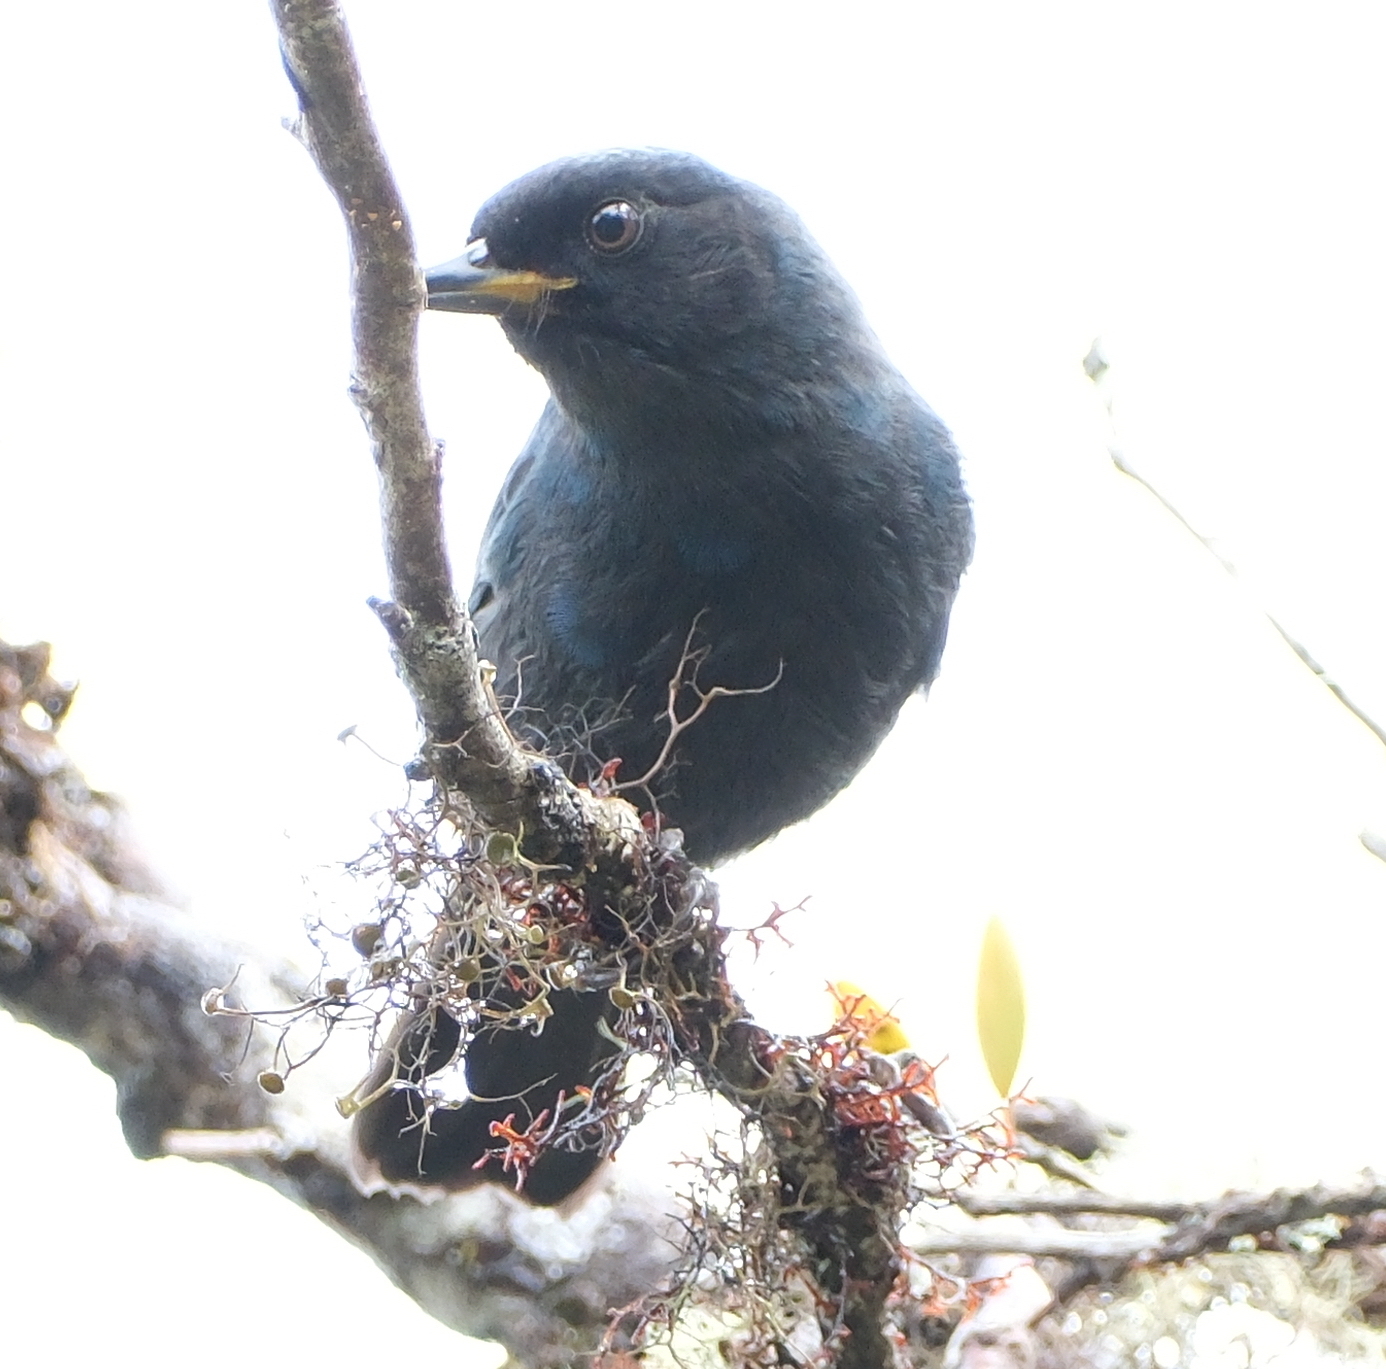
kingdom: Animalia
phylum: Chordata
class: Aves
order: Passeriformes
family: Thraupidae
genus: Diglossa
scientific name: Diglossa cyanea
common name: Masked flowerpiercer
